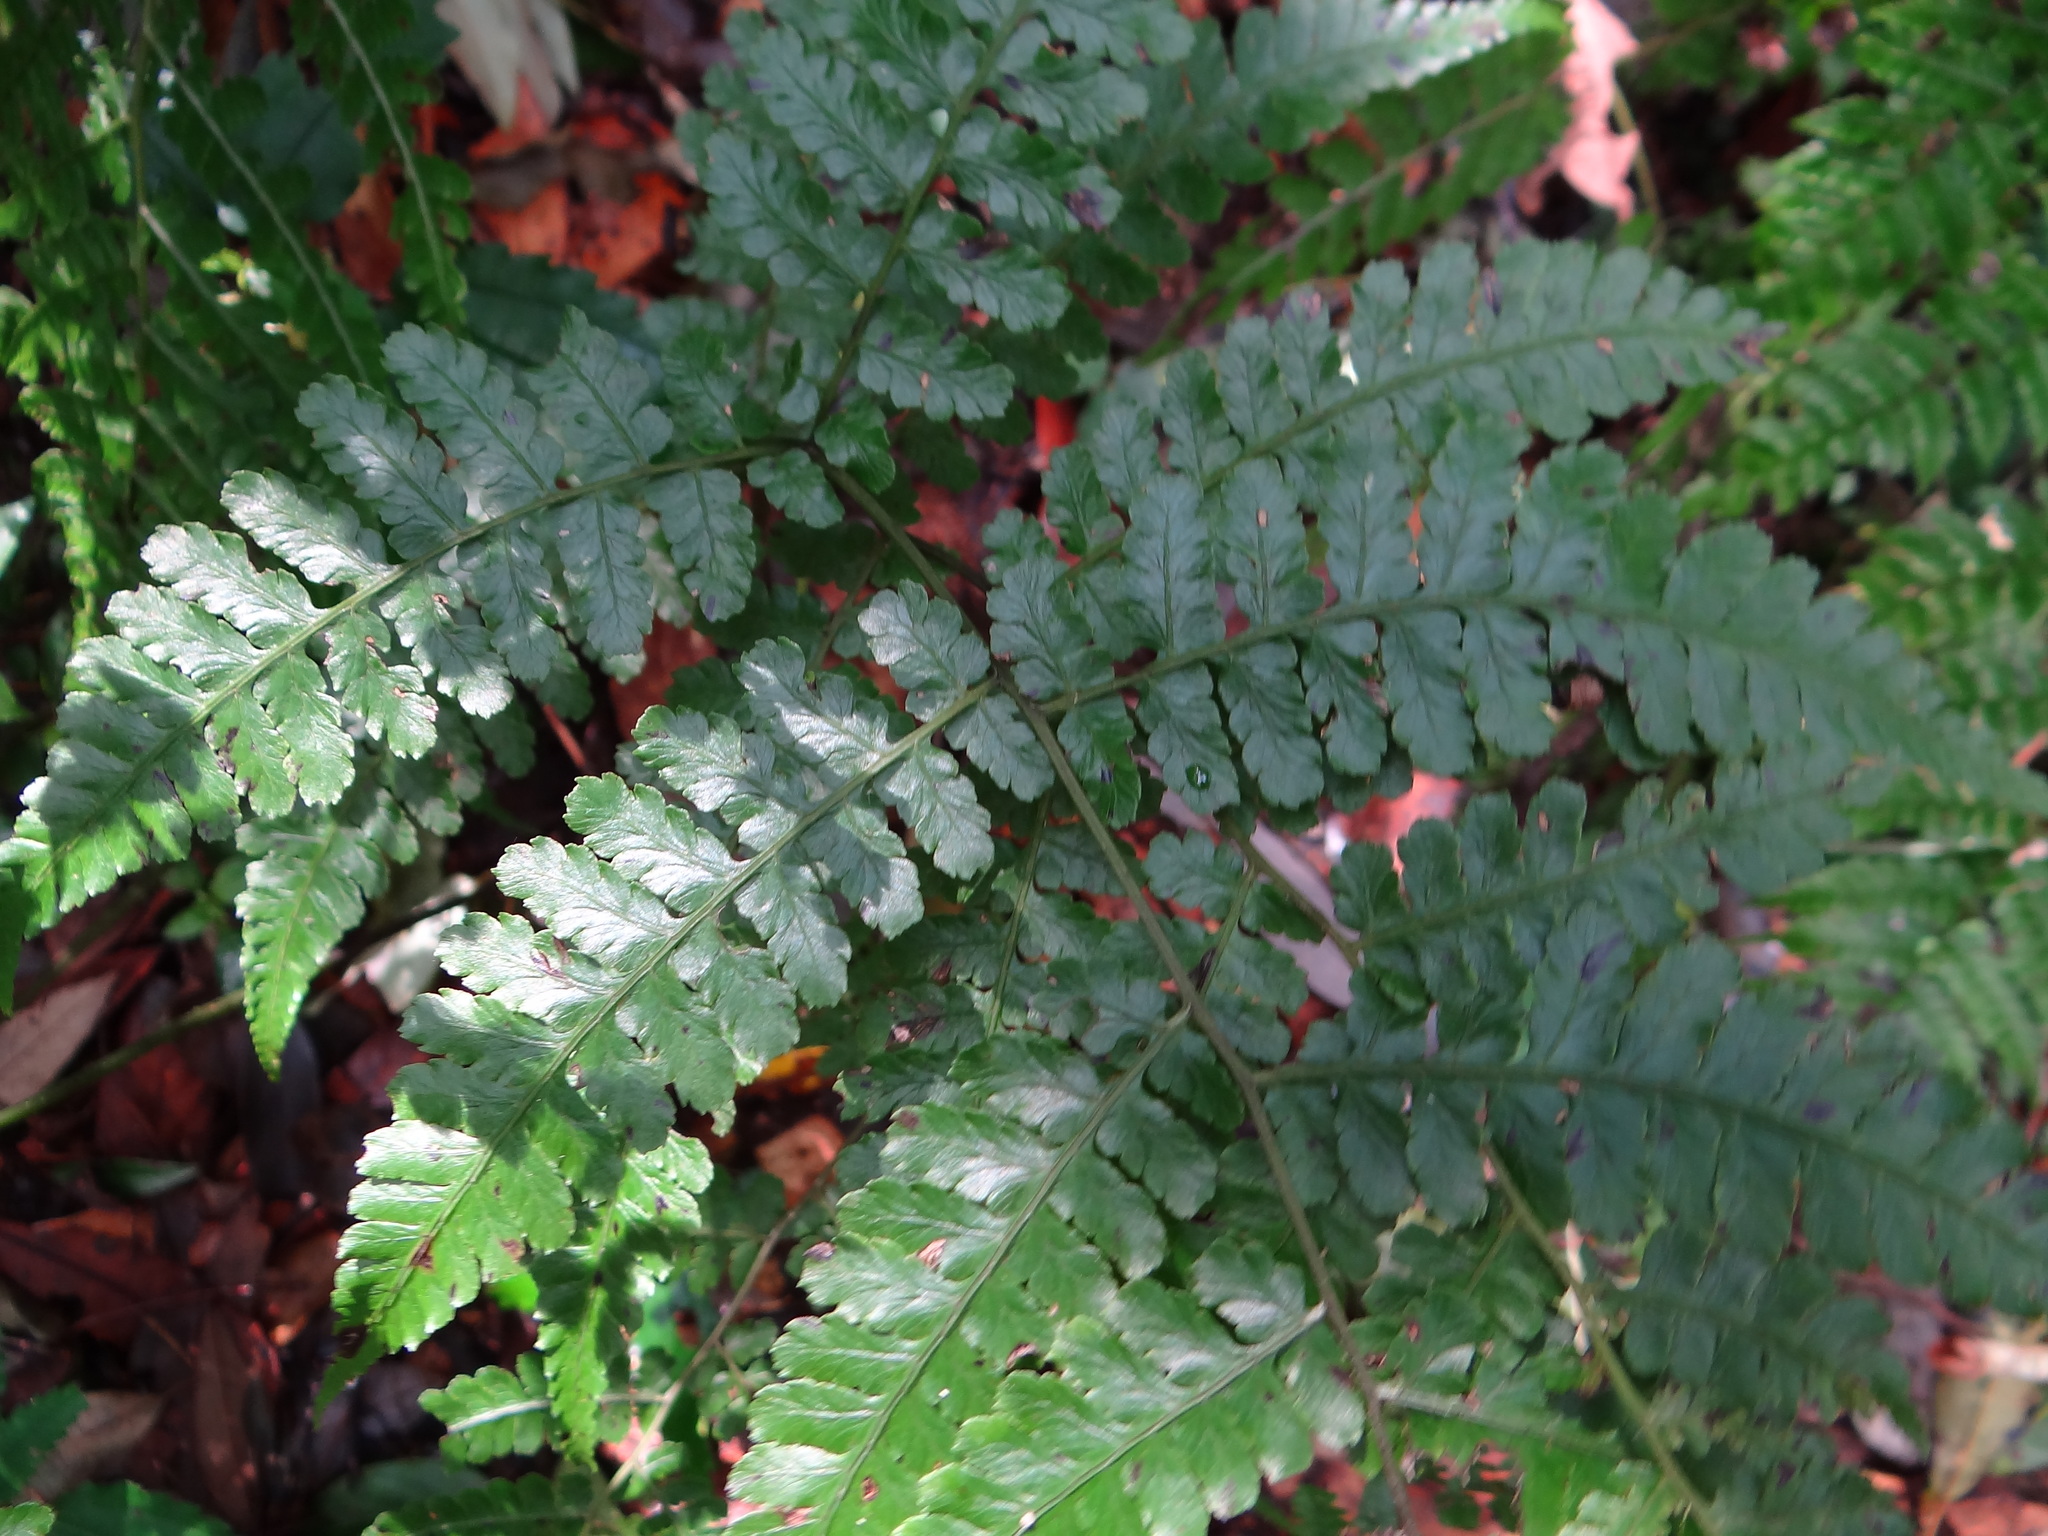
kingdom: Plantae
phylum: Tracheophyta
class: Polypodiopsida
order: Polypodiales
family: Athyriaceae
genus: Diplazium
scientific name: Diplazium kawakamii
